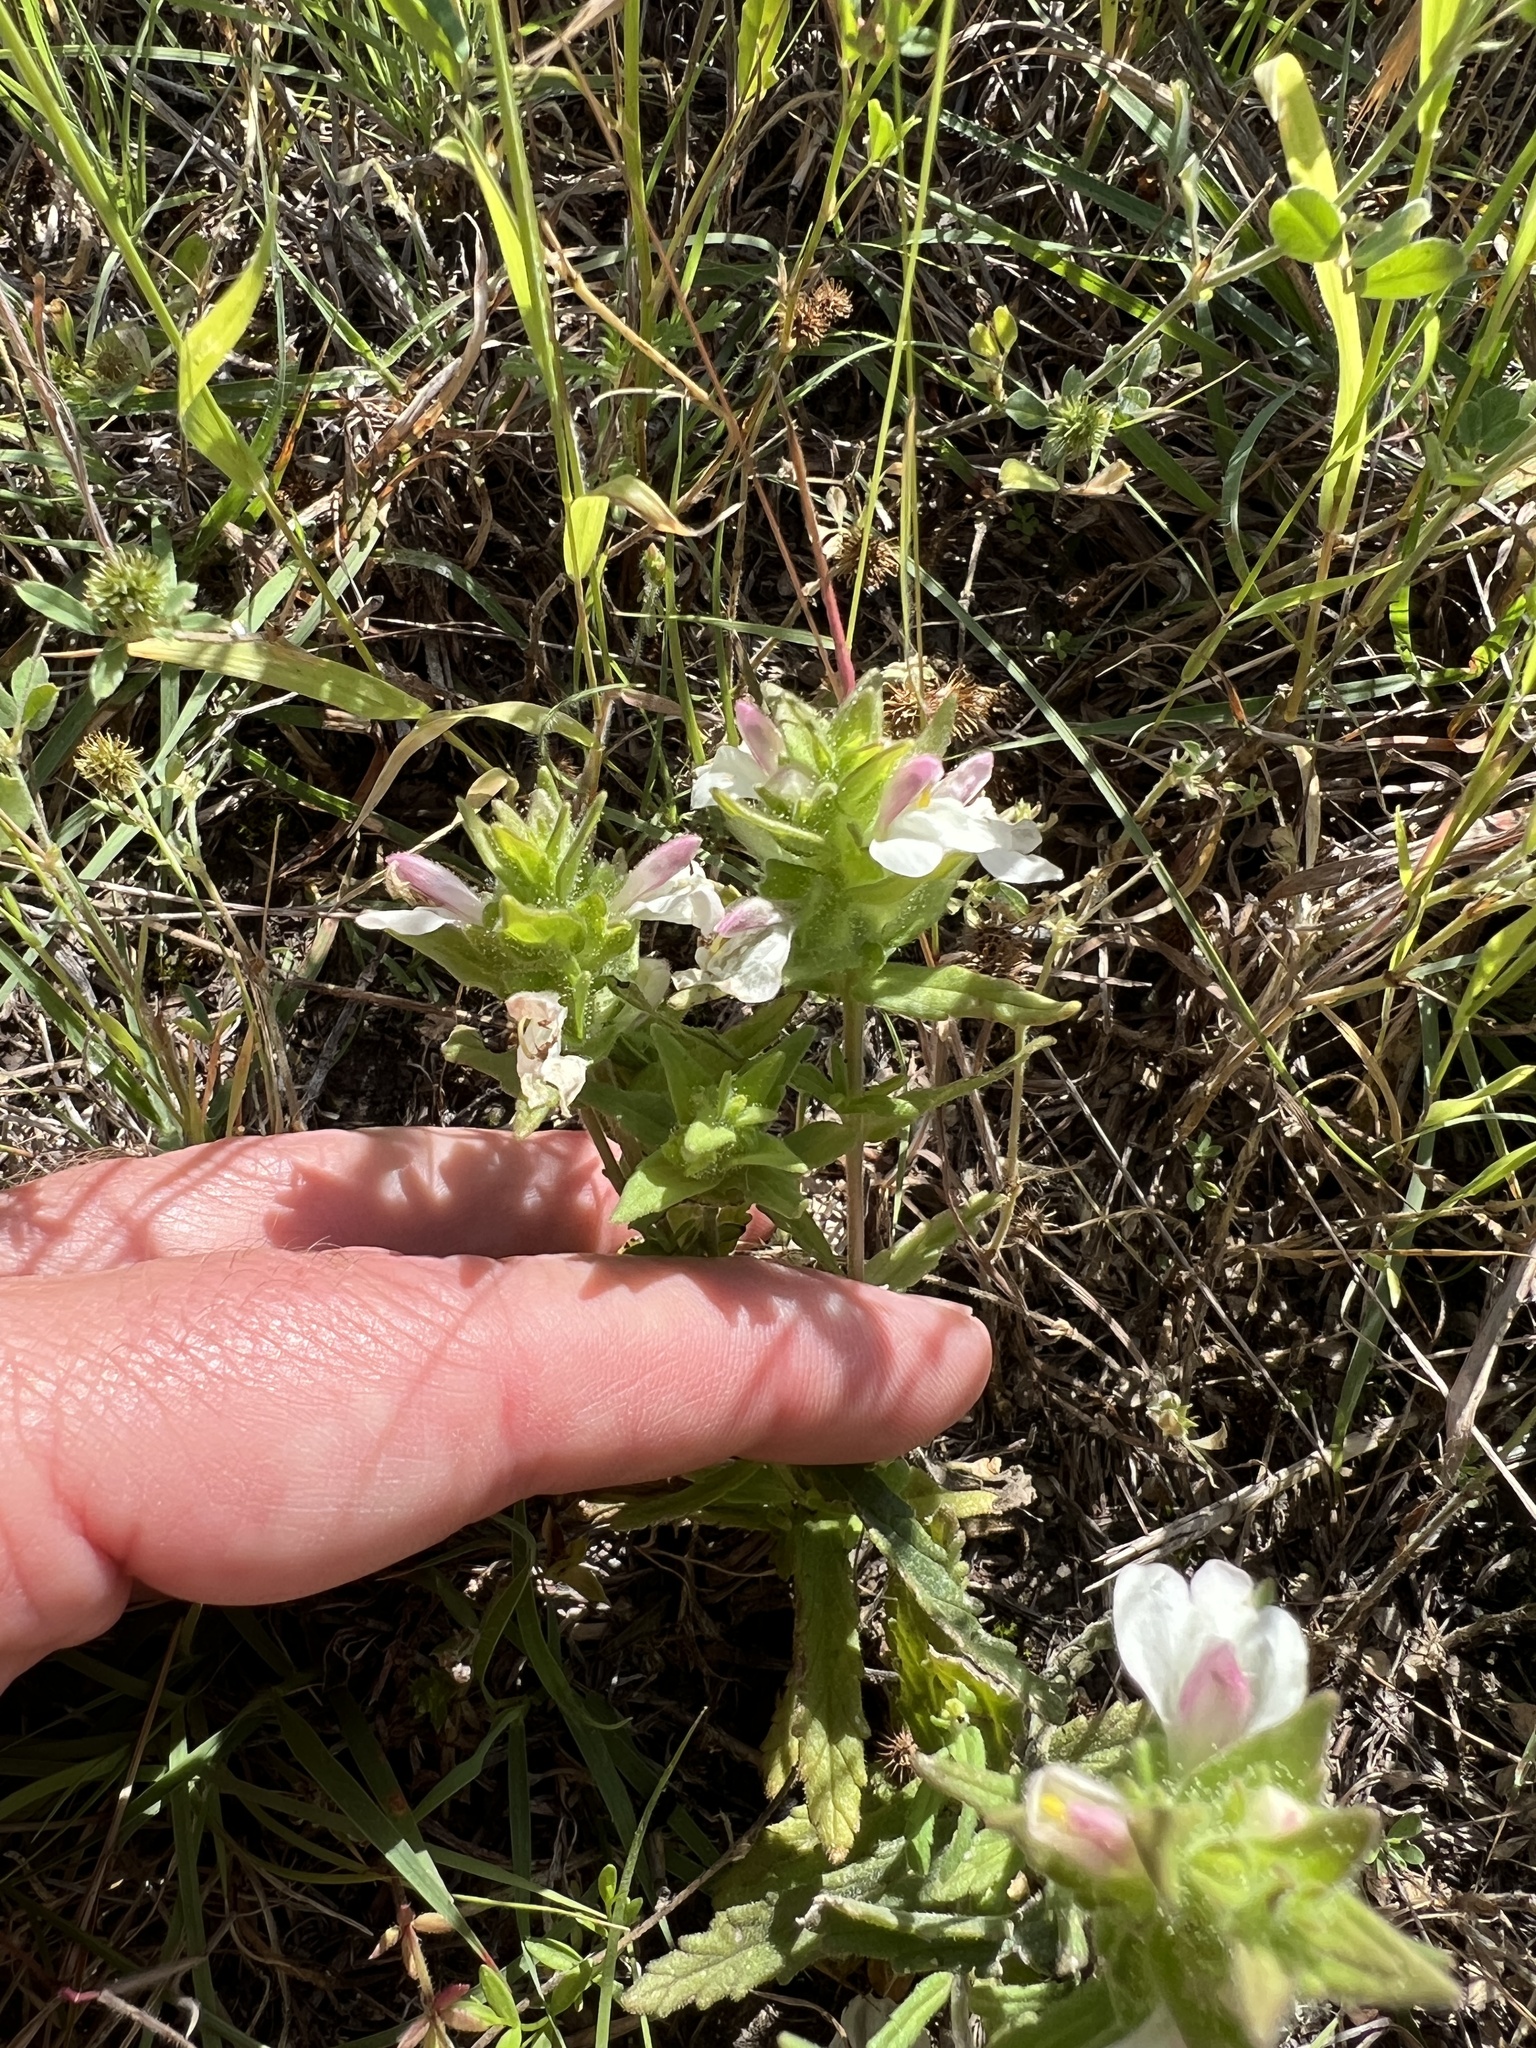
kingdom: Plantae
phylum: Tracheophyta
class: Magnoliopsida
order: Lamiales
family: Orobanchaceae
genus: Bellardia
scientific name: Bellardia trixago
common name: Mediterranean lineseed
